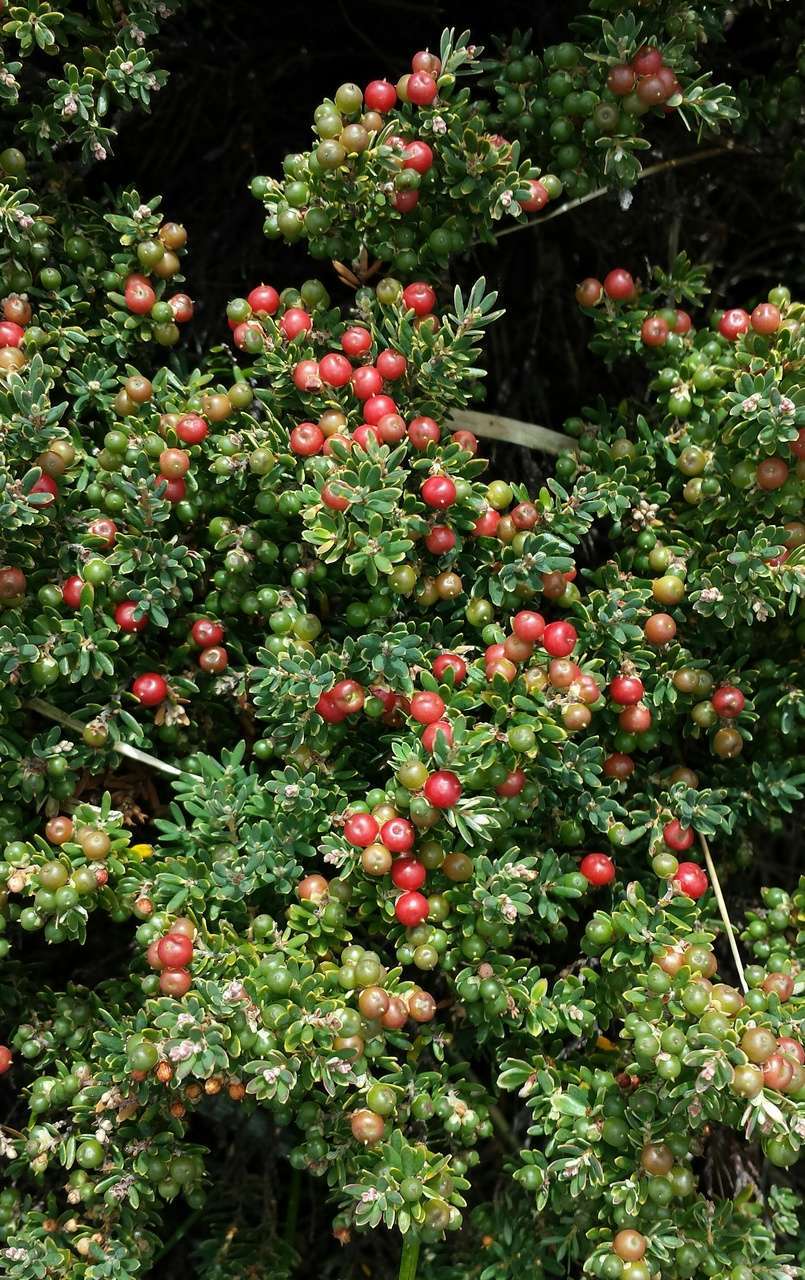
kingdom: Plantae
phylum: Tracheophyta
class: Magnoliopsida
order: Ericales
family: Ericaceae
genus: Acrothamnus
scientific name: Acrothamnus montanus
